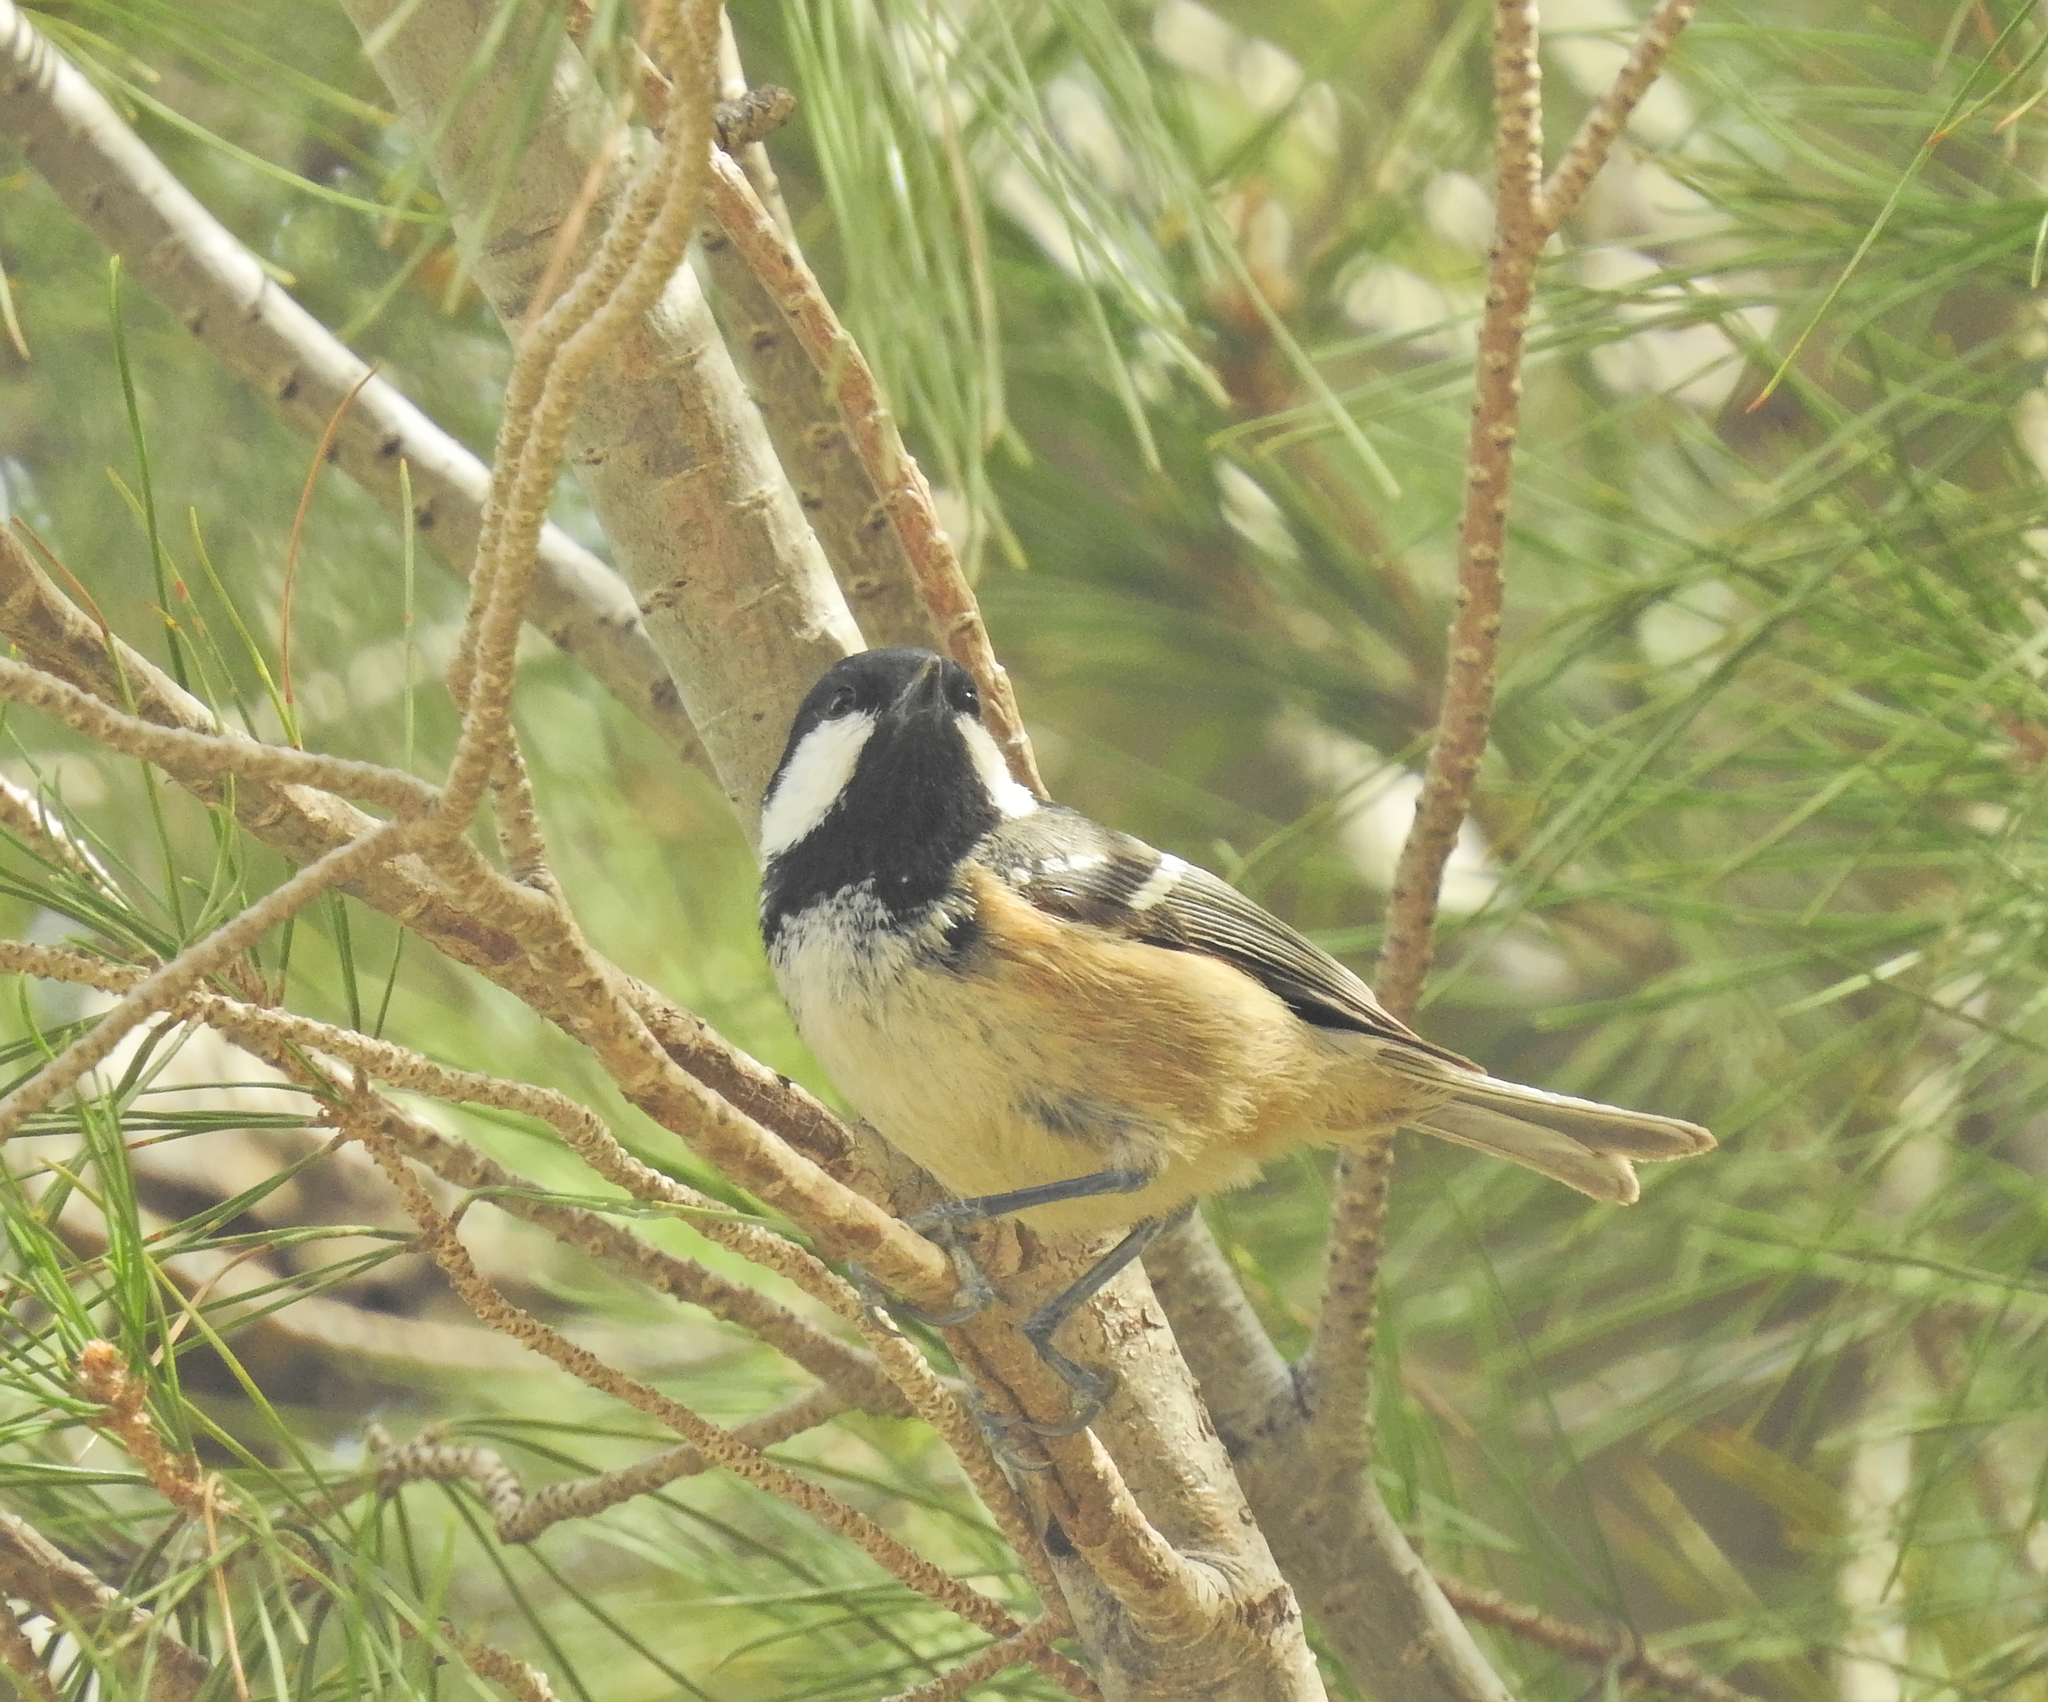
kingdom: Animalia
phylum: Chordata
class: Aves
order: Passeriformes
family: Paridae
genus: Periparus
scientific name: Periparus ater
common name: Coal tit
